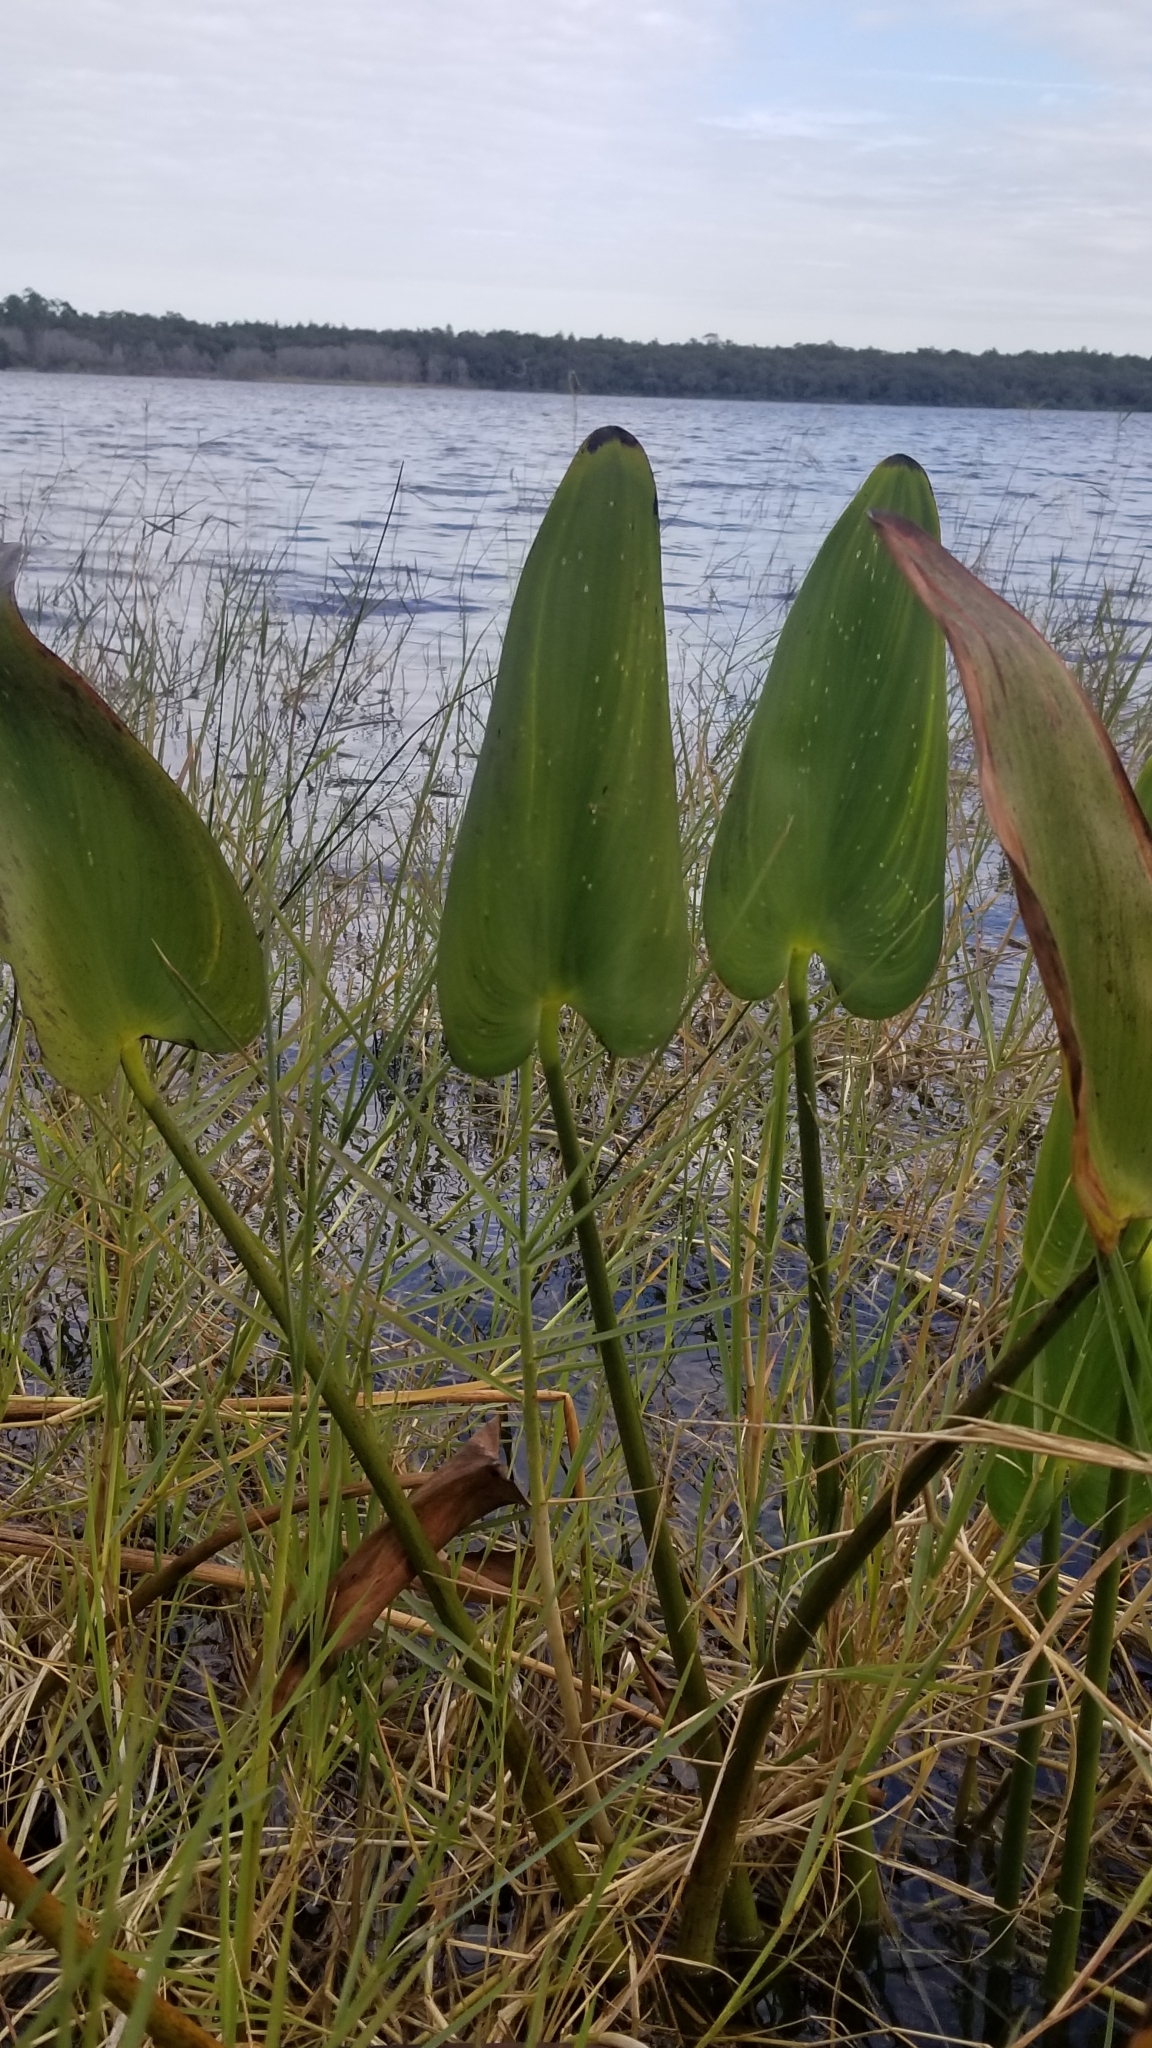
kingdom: Plantae
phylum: Tracheophyta
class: Liliopsida
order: Commelinales
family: Pontederiaceae
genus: Pontederia
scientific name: Pontederia cordata
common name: Pickerelweed
